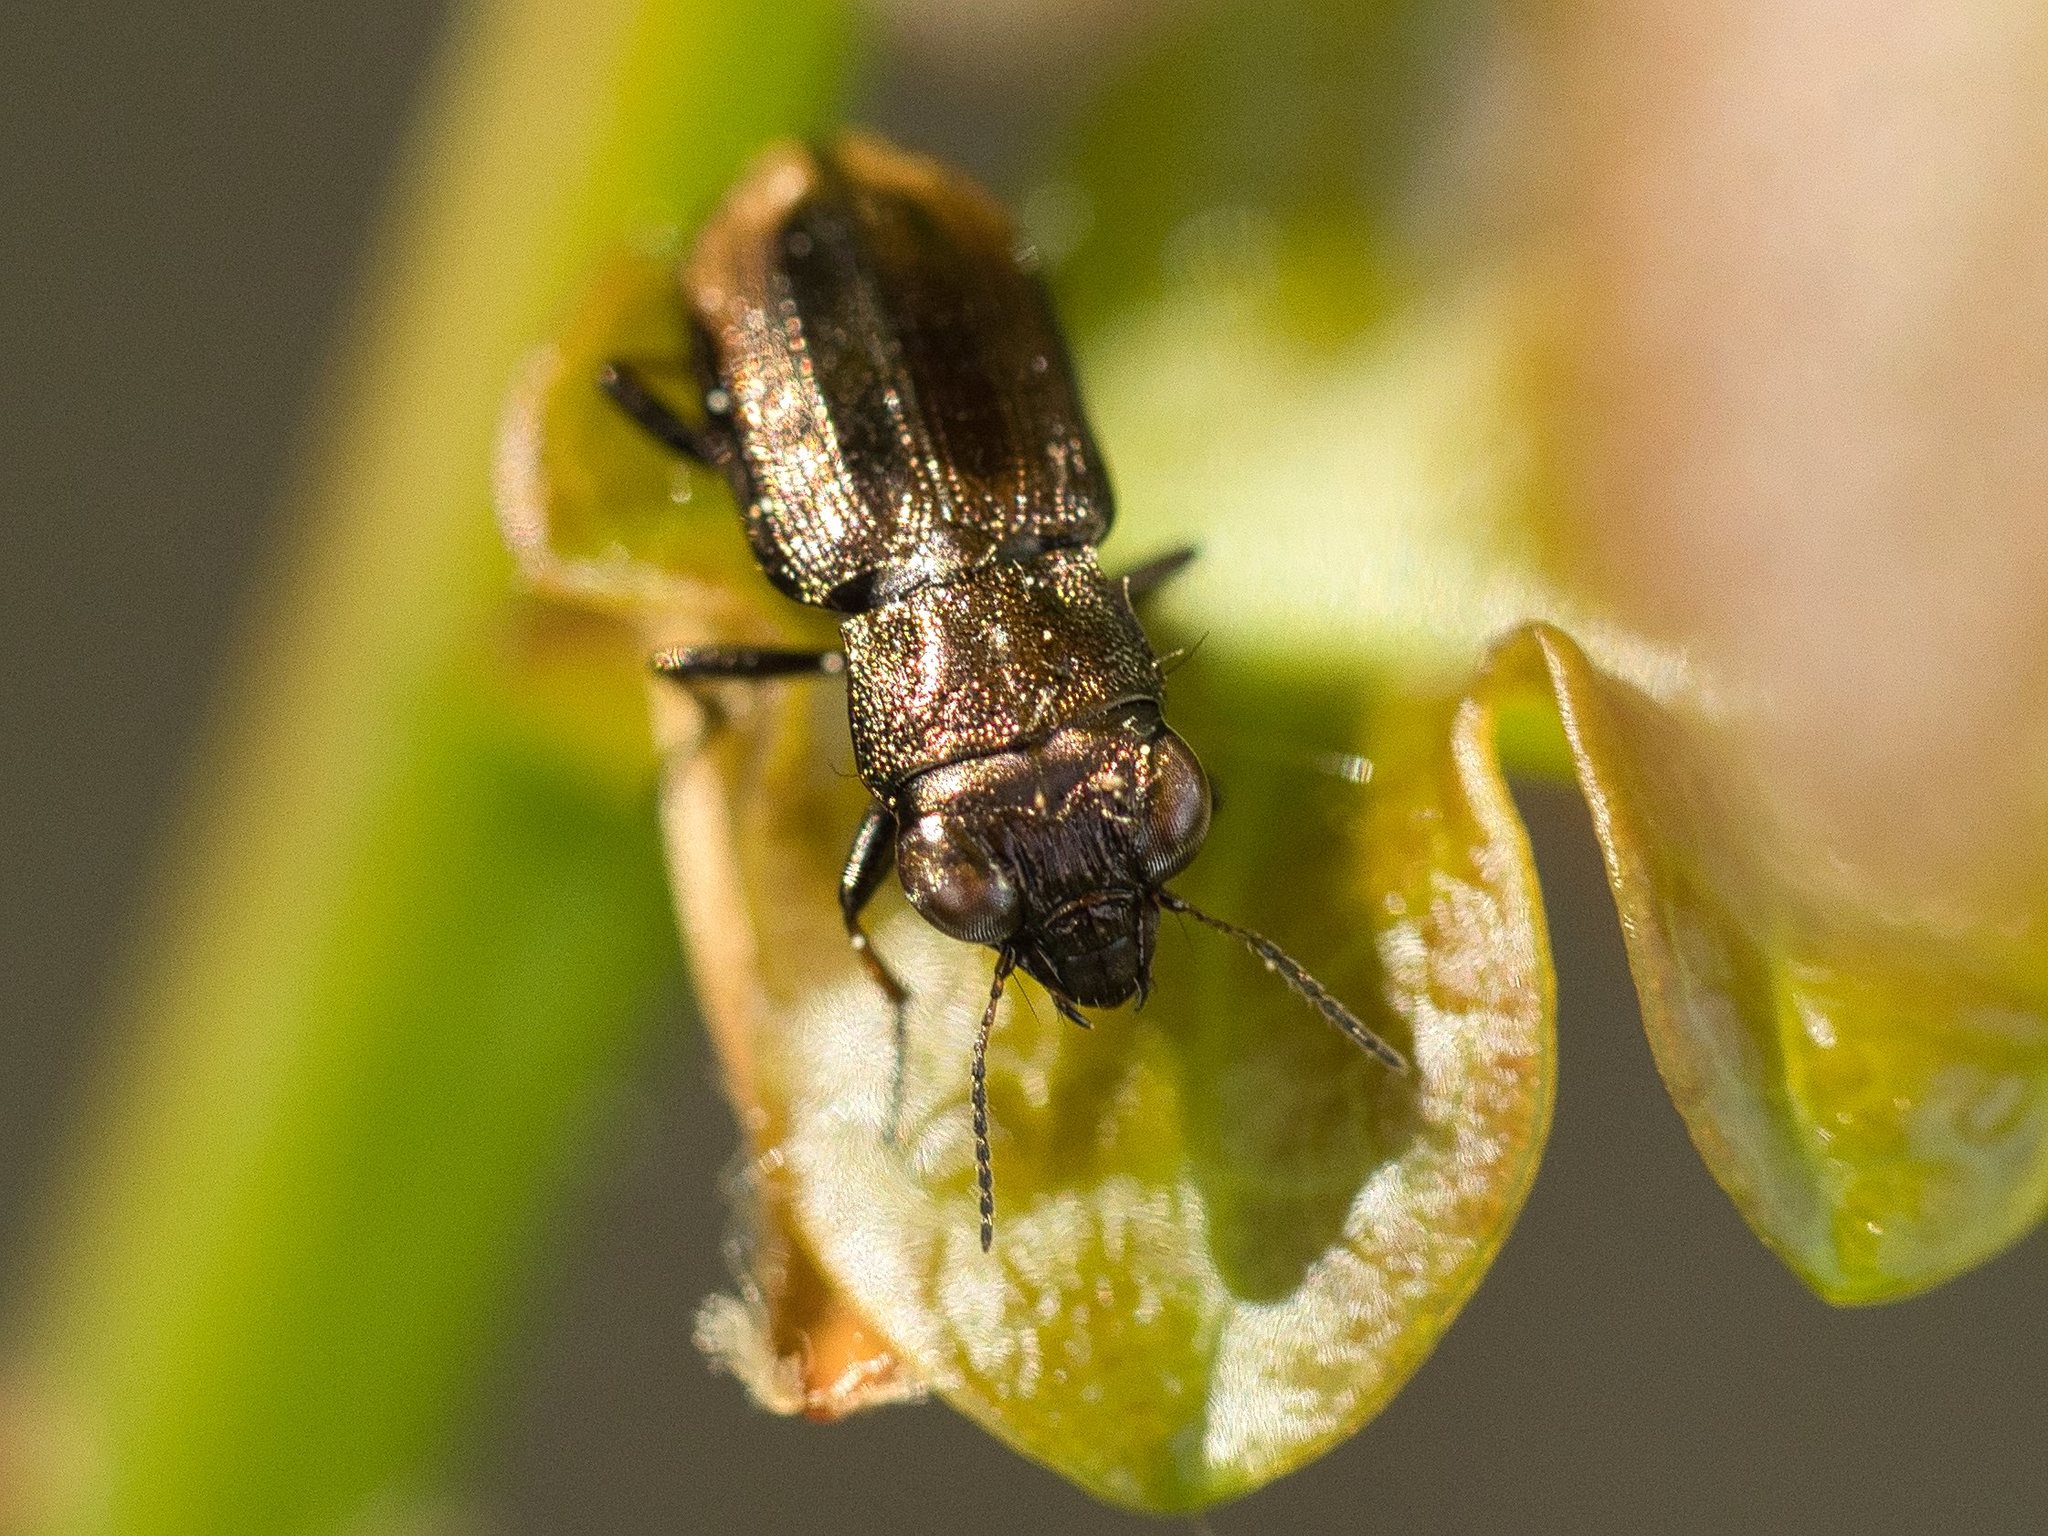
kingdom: Animalia
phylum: Arthropoda
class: Insecta
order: Coleoptera
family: Carabidae
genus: Notiophilus
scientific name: Notiophilus biguttatus
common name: Spotted gazelle beetle
